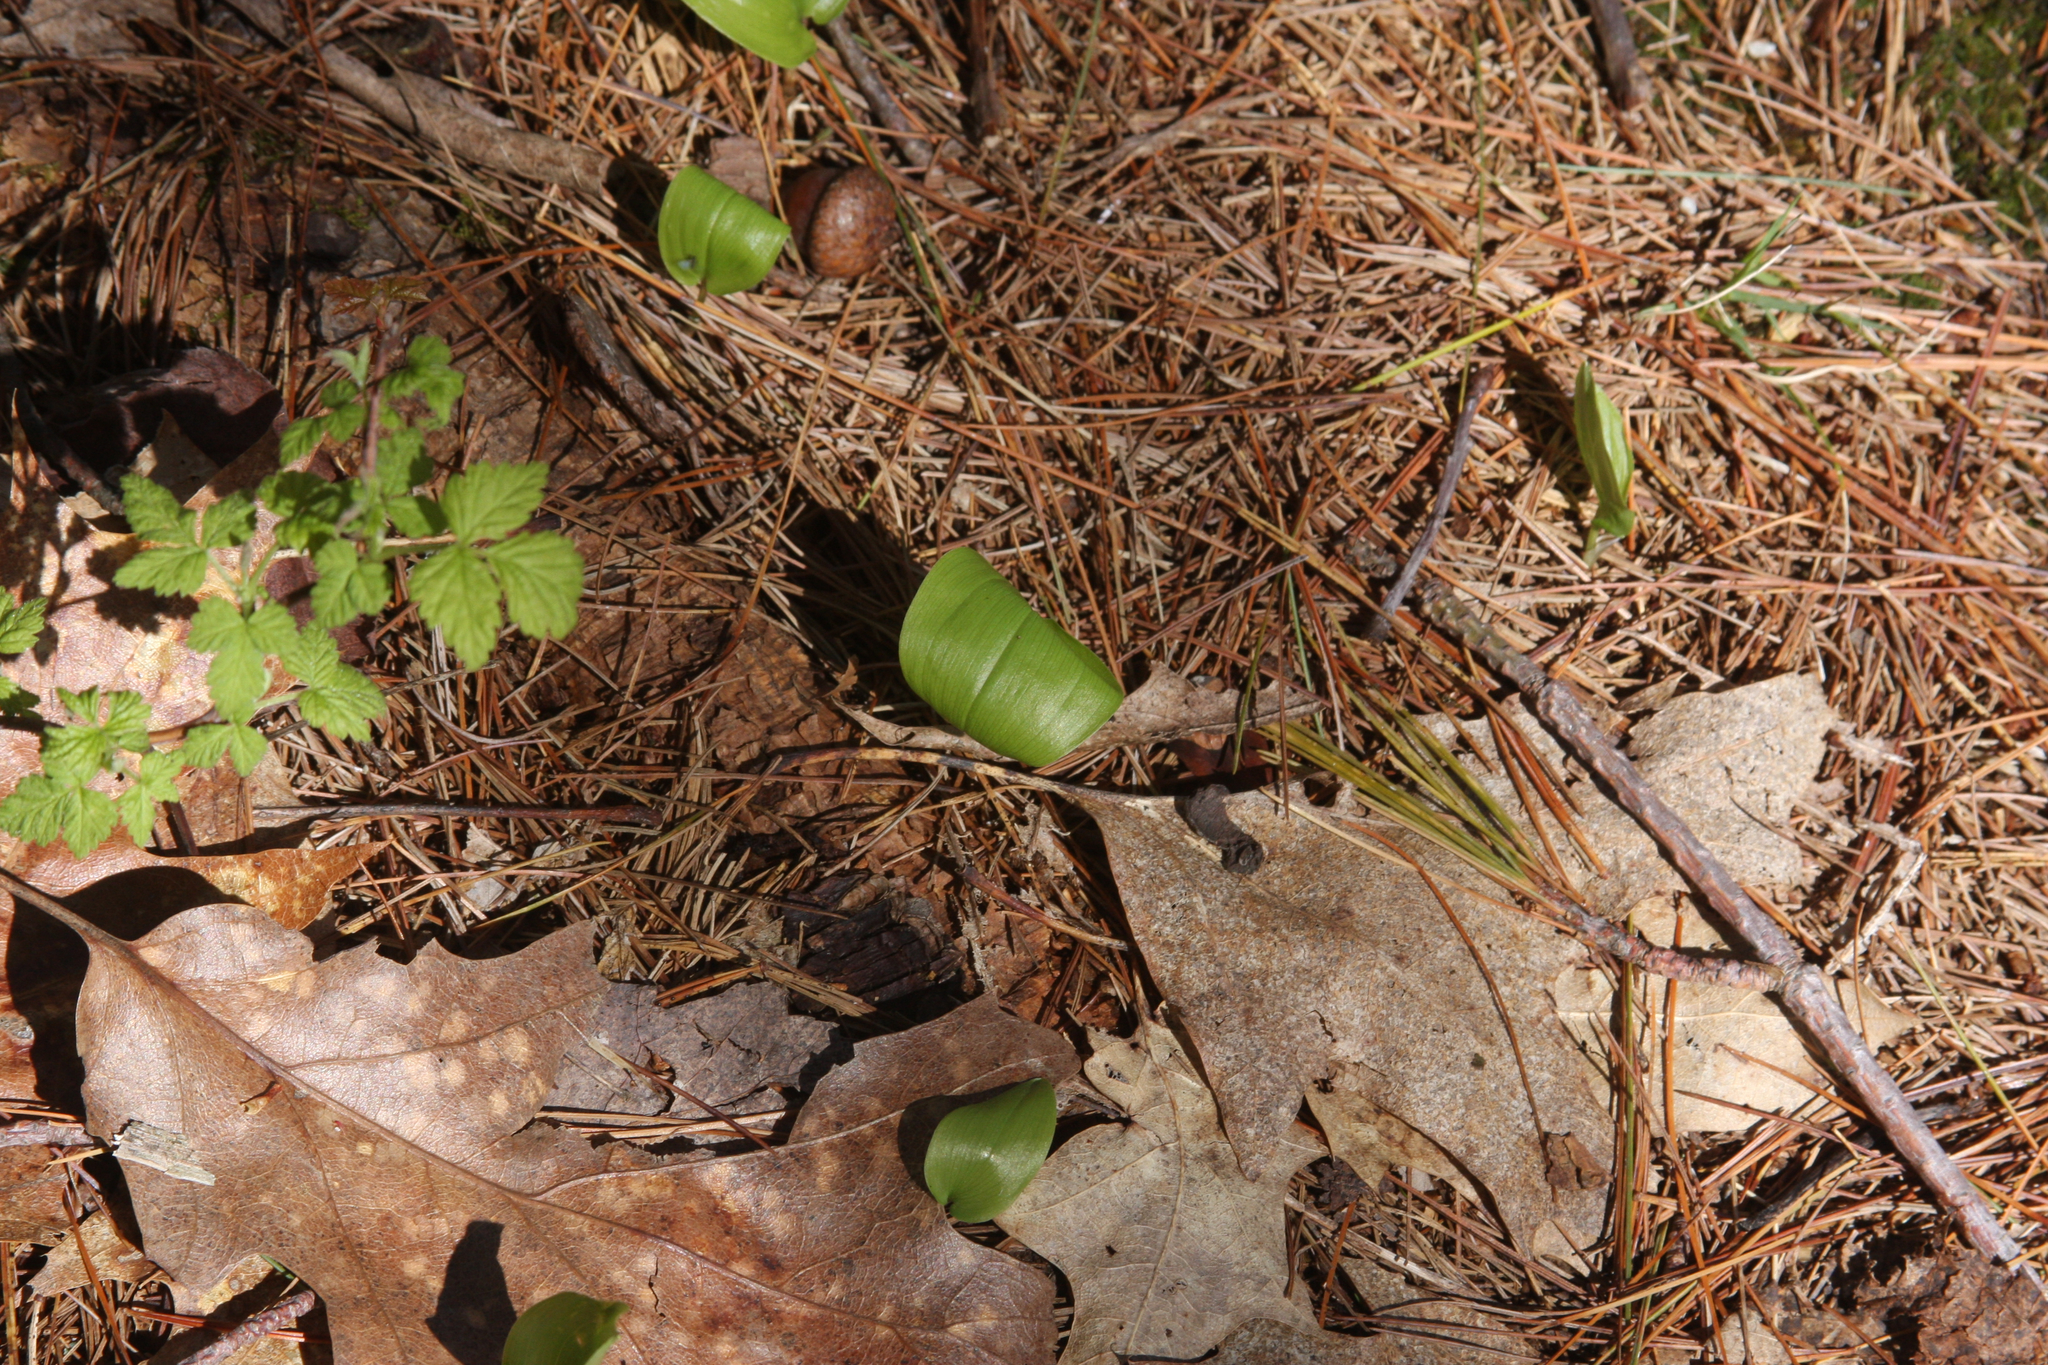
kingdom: Plantae
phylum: Tracheophyta
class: Liliopsida
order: Asparagales
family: Asparagaceae
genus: Maianthemum
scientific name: Maianthemum canadense
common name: False lily-of-the-valley
